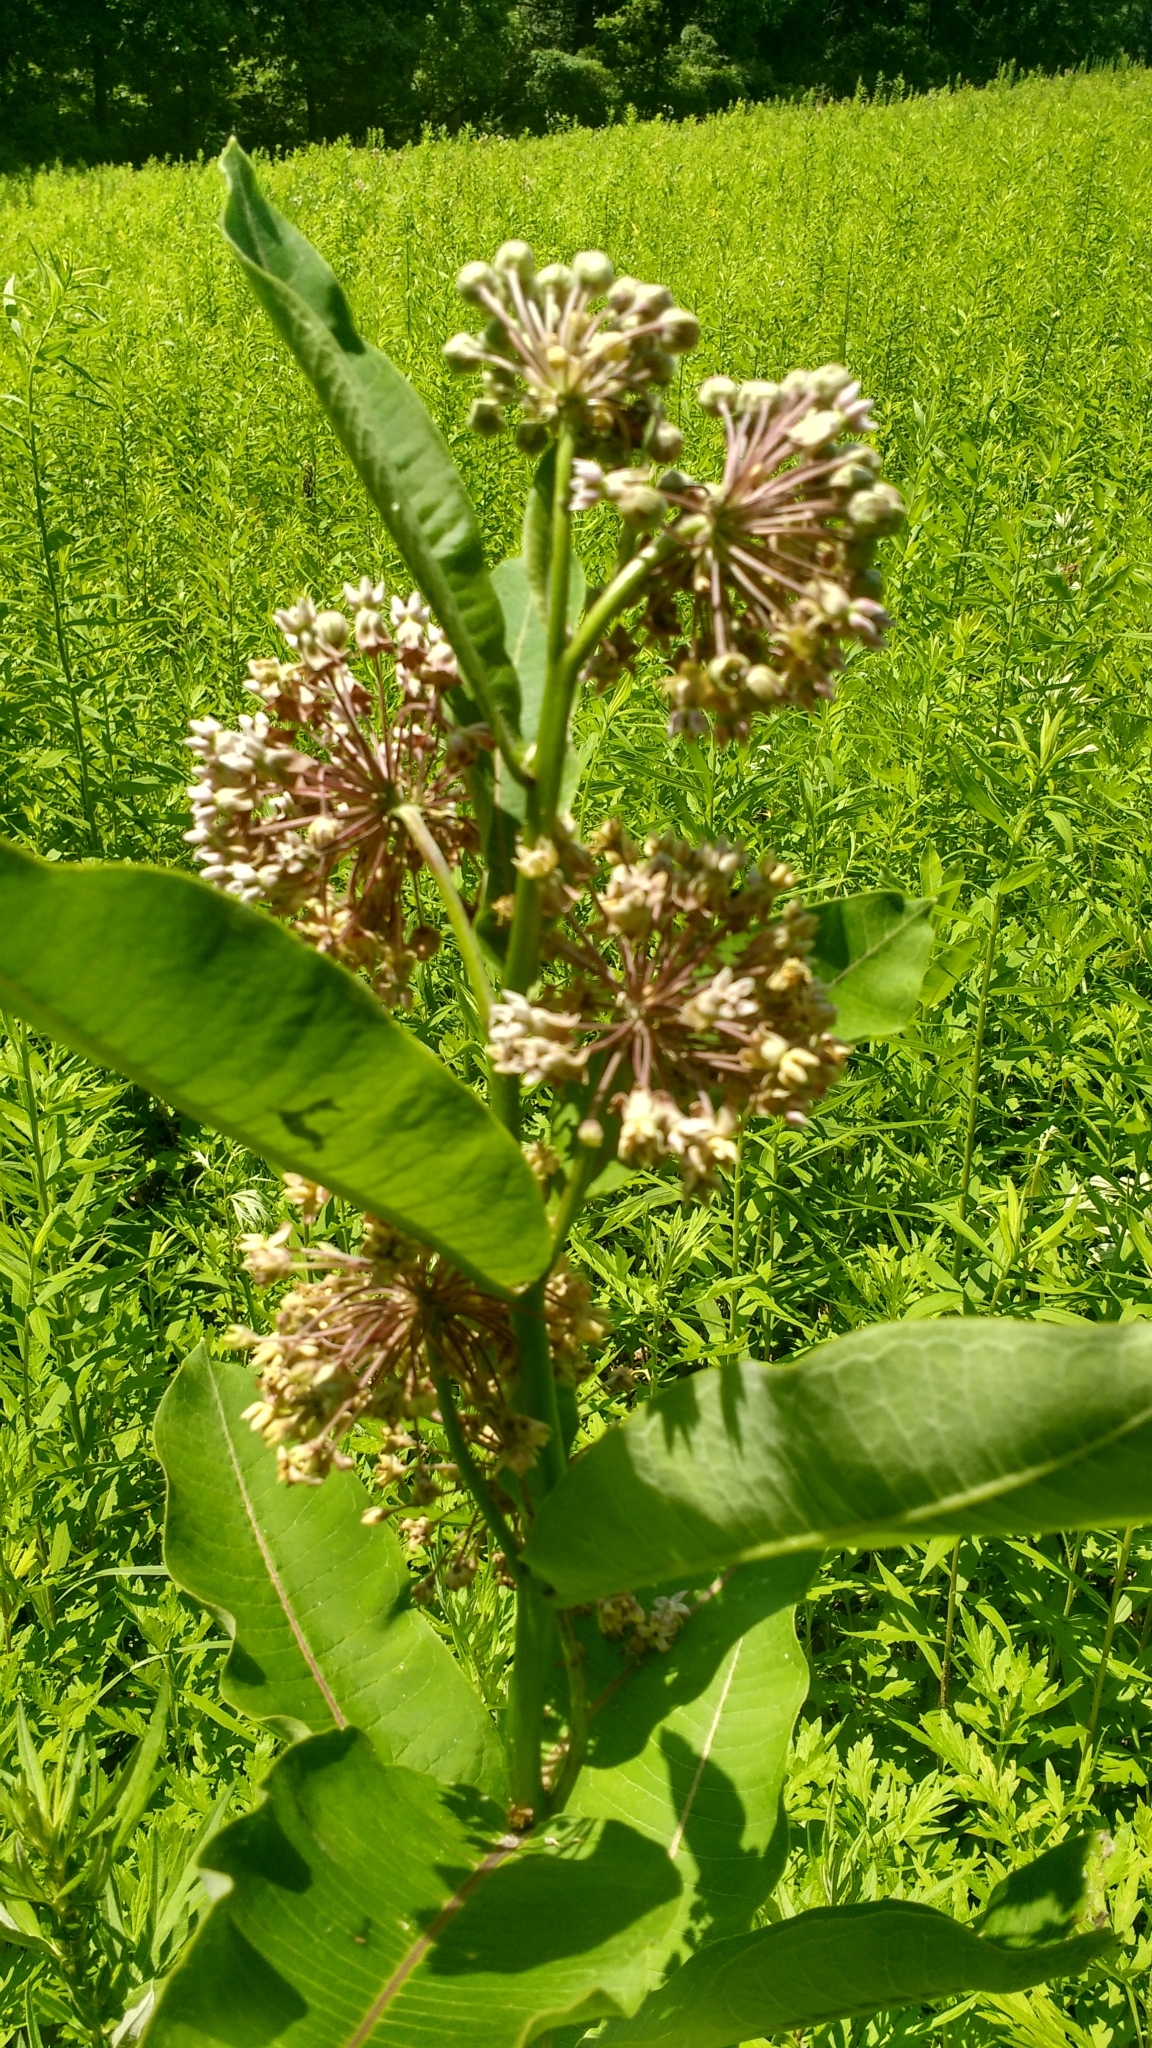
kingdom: Plantae
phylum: Tracheophyta
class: Magnoliopsida
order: Gentianales
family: Apocynaceae
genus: Asclepias
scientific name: Asclepias syriaca
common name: Common milkweed
